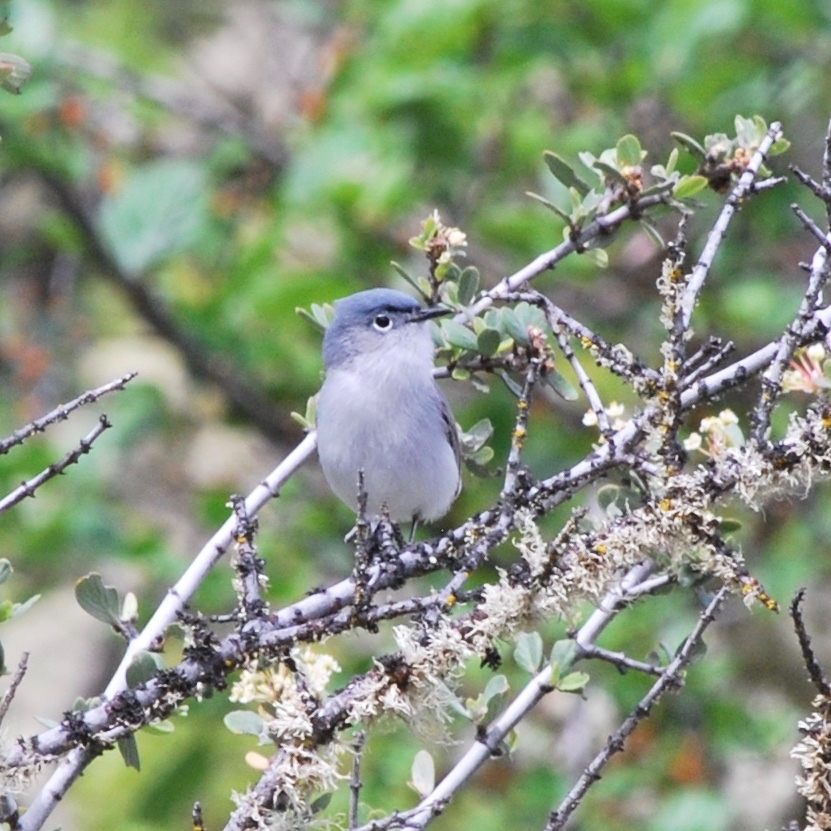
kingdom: Animalia
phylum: Chordata
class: Aves
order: Passeriformes
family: Polioptilidae
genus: Polioptila
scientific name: Polioptila caerulea
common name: Blue-gray gnatcatcher
